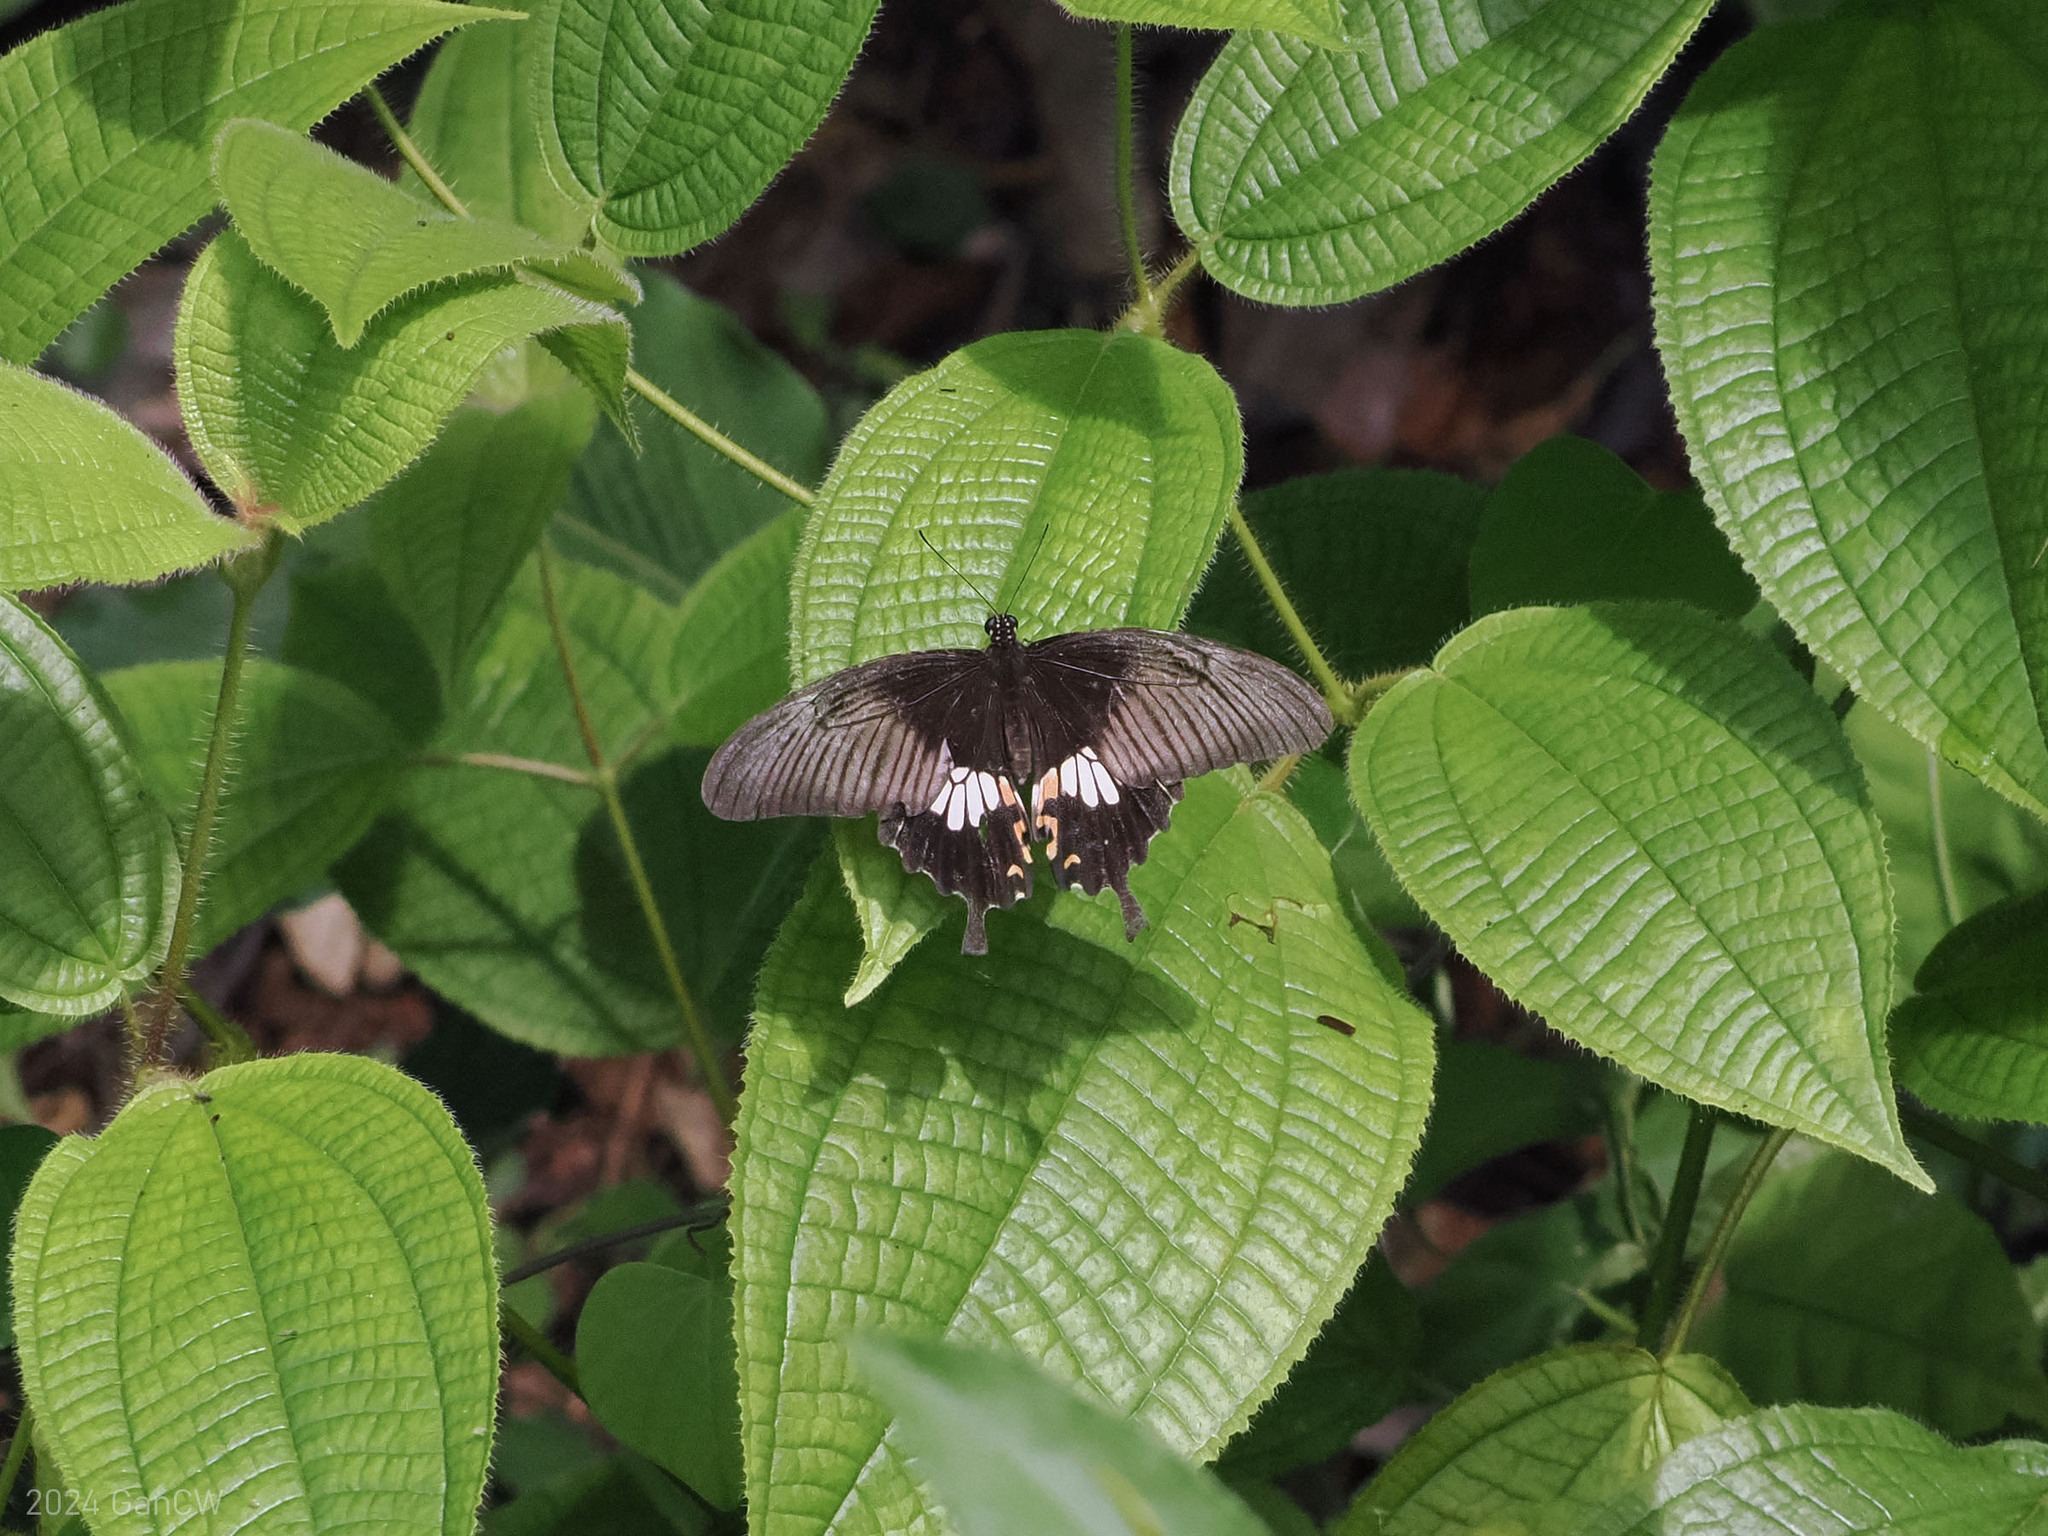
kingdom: Animalia
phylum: Arthropoda
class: Insecta
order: Lepidoptera
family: Papilionidae
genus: Papilio
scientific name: Papilio polytes
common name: Common mormon
